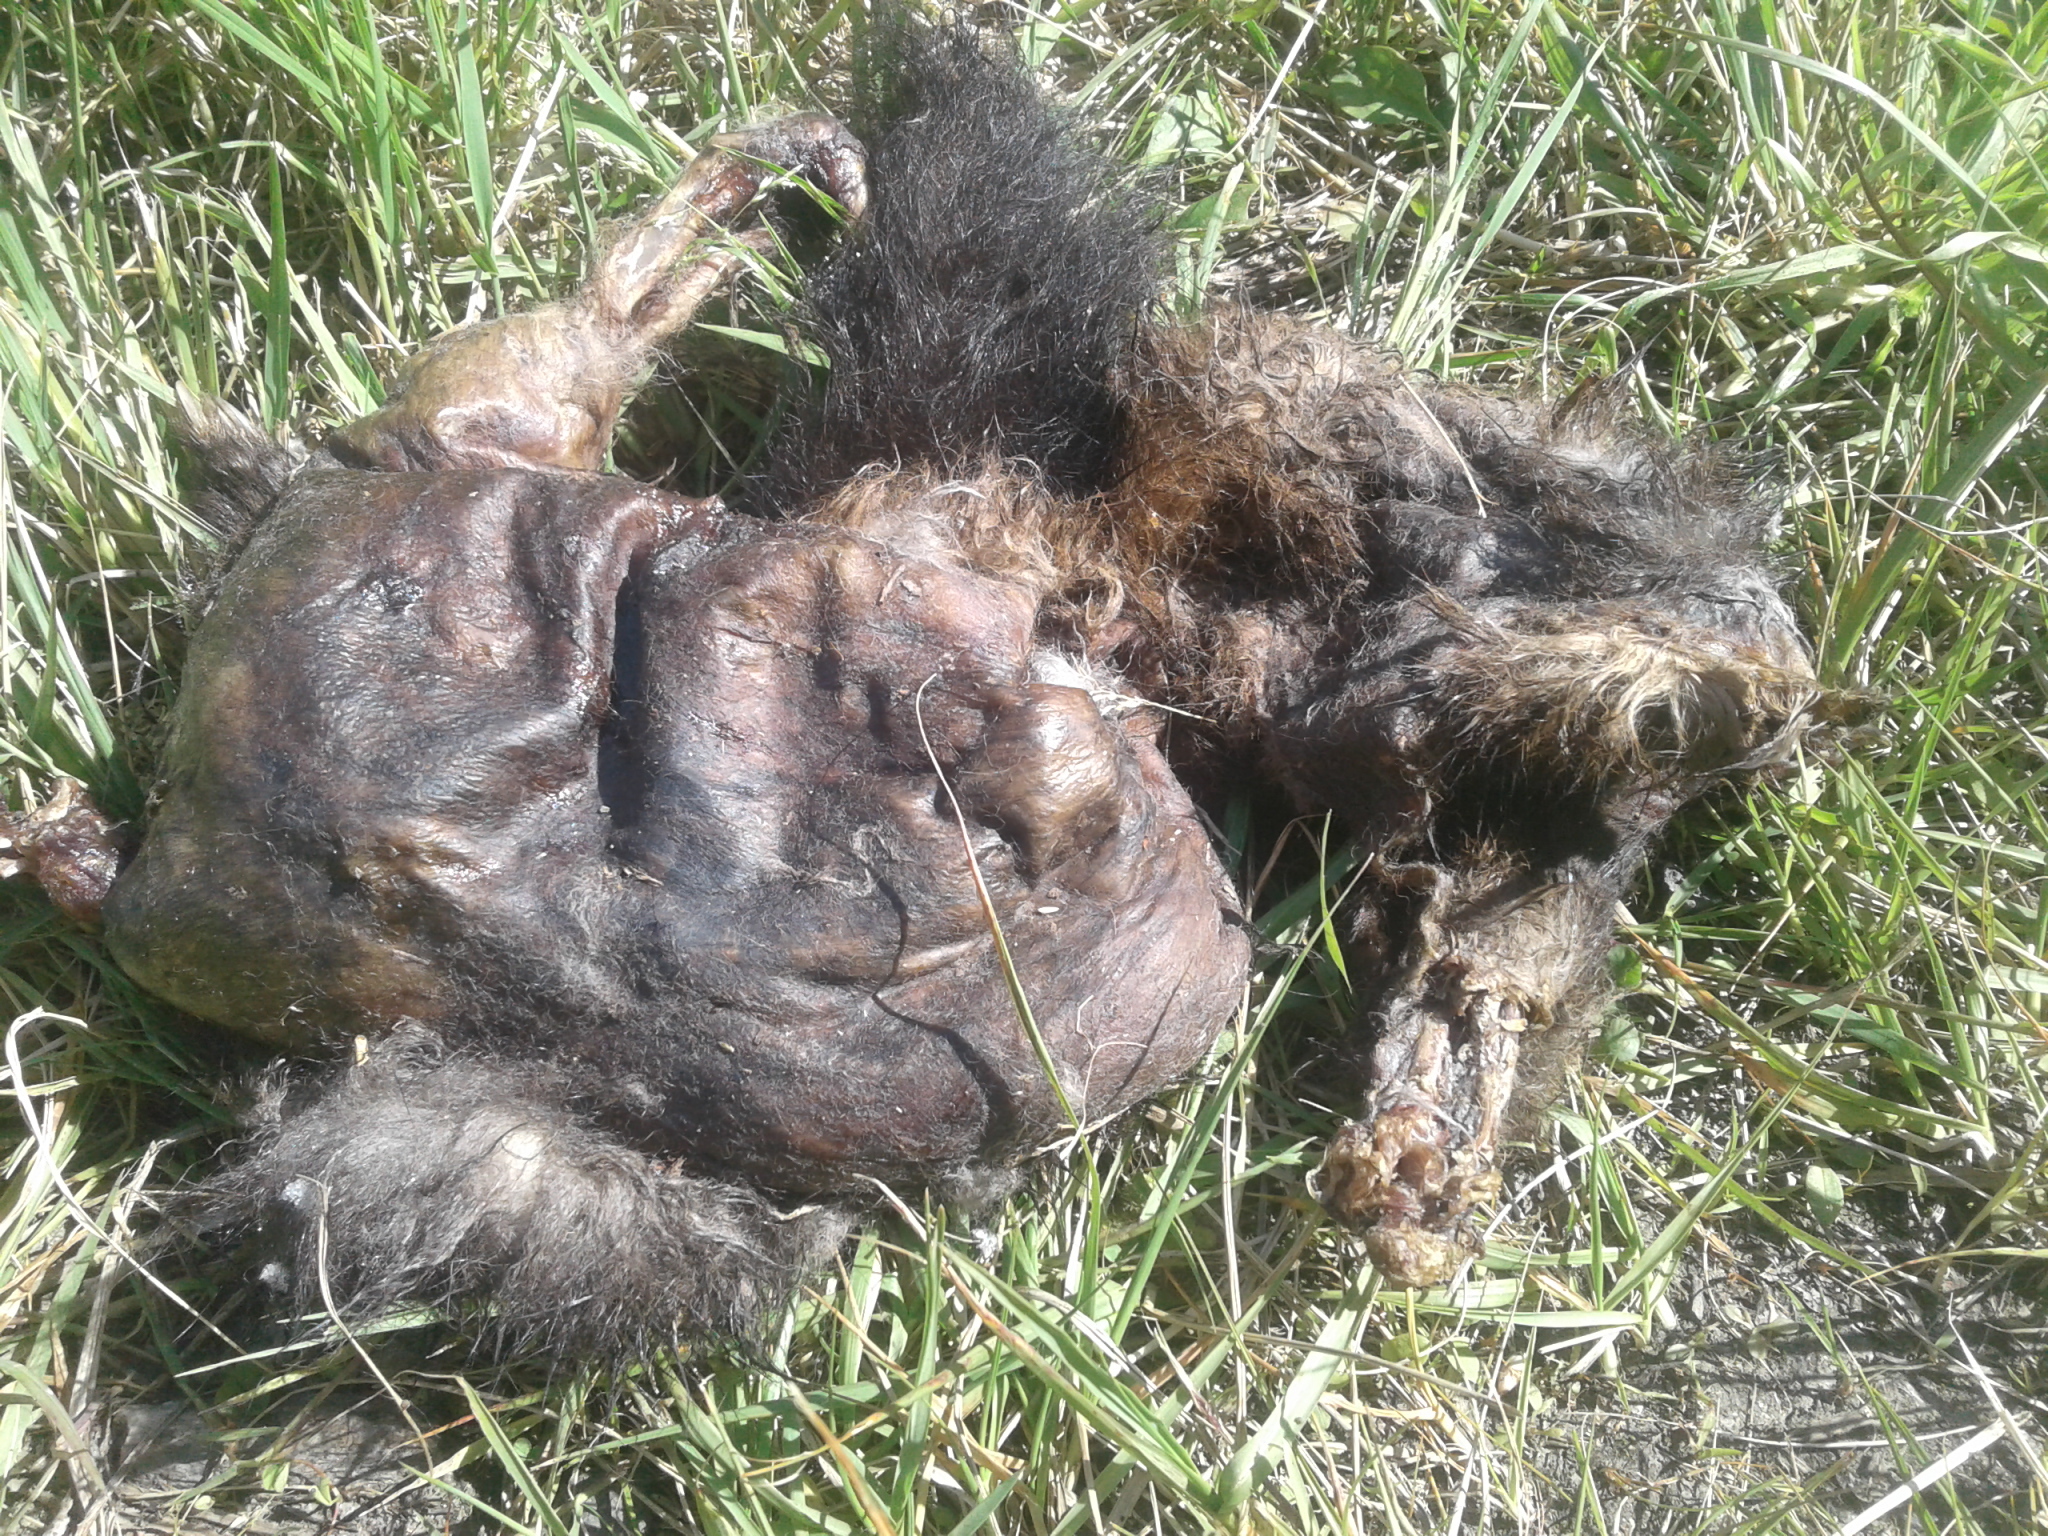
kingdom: Animalia
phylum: Chordata
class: Mammalia
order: Diprotodontia
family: Phalangeridae
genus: Trichosurus
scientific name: Trichosurus vulpecula
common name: Common brushtail
